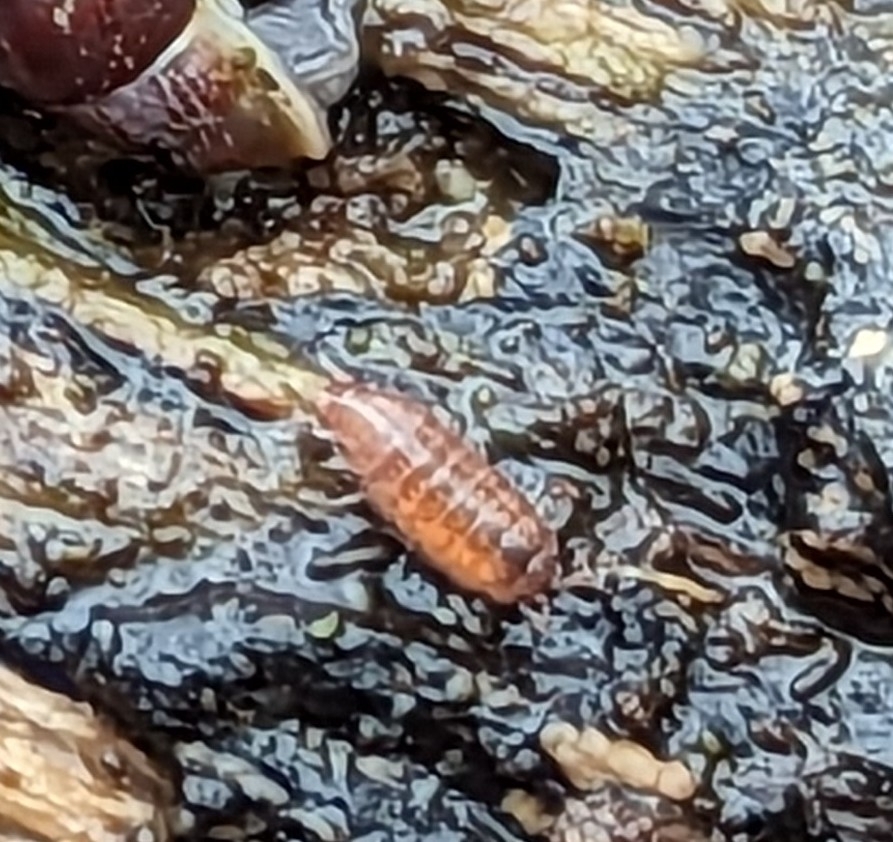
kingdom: Animalia
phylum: Arthropoda
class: Malacostraca
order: Isopoda
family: Trichoniscidae
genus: Trichoniscus
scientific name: Trichoniscus
